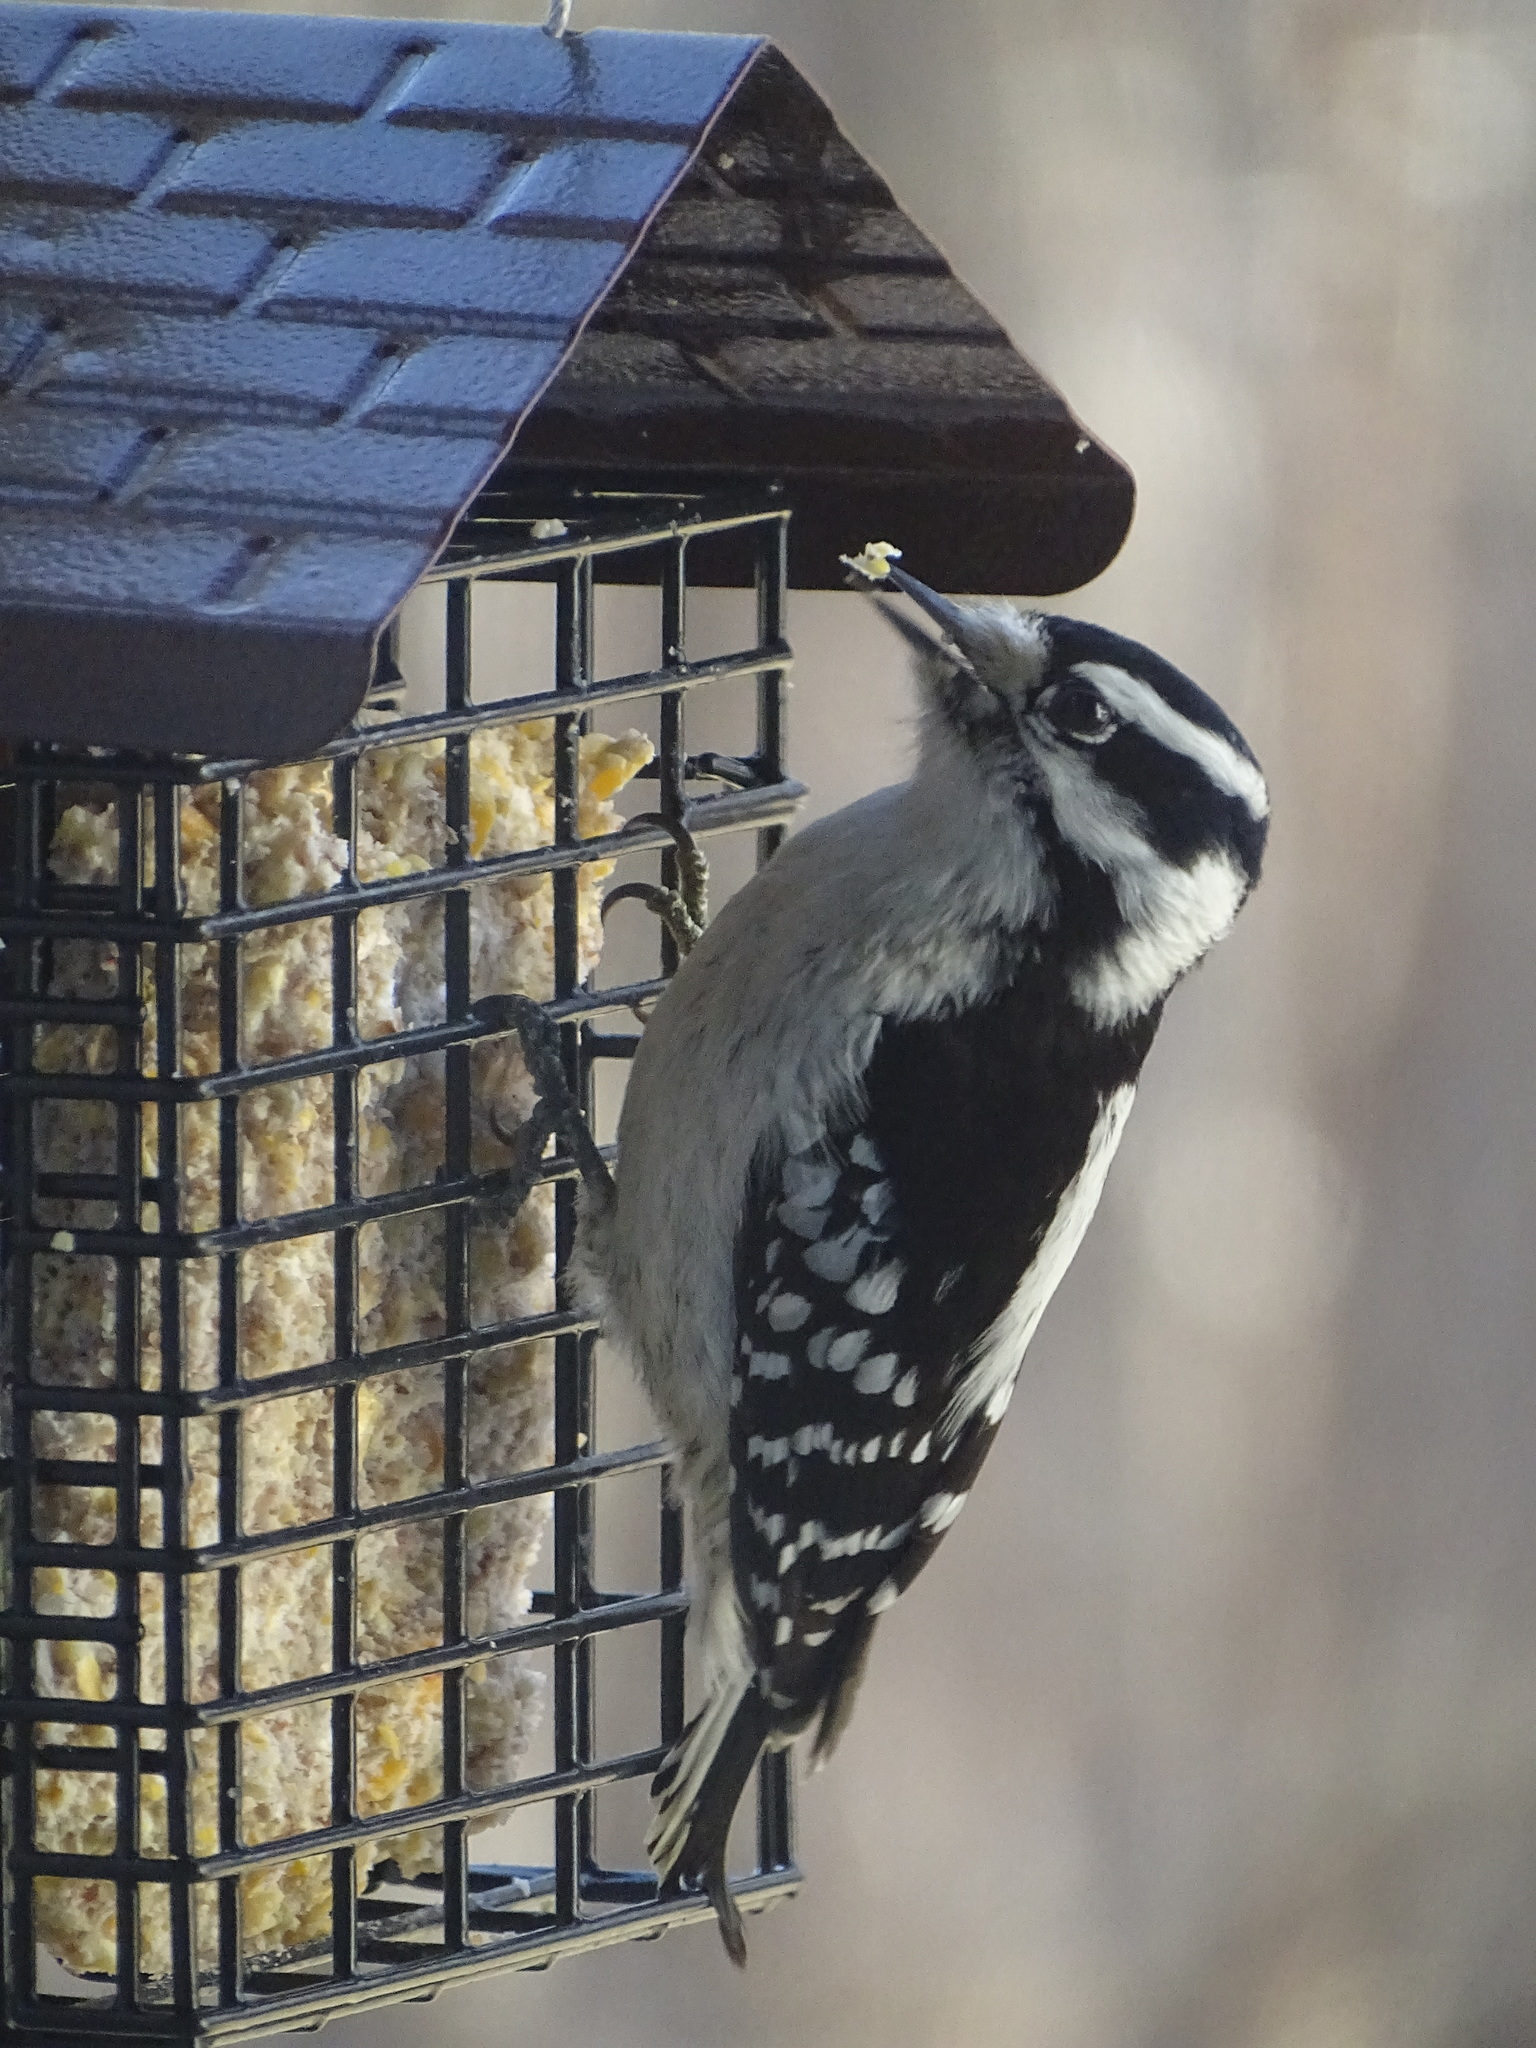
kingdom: Animalia
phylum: Chordata
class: Aves
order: Piciformes
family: Picidae
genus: Dryobates
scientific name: Dryobates pubescens
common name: Downy woodpecker
